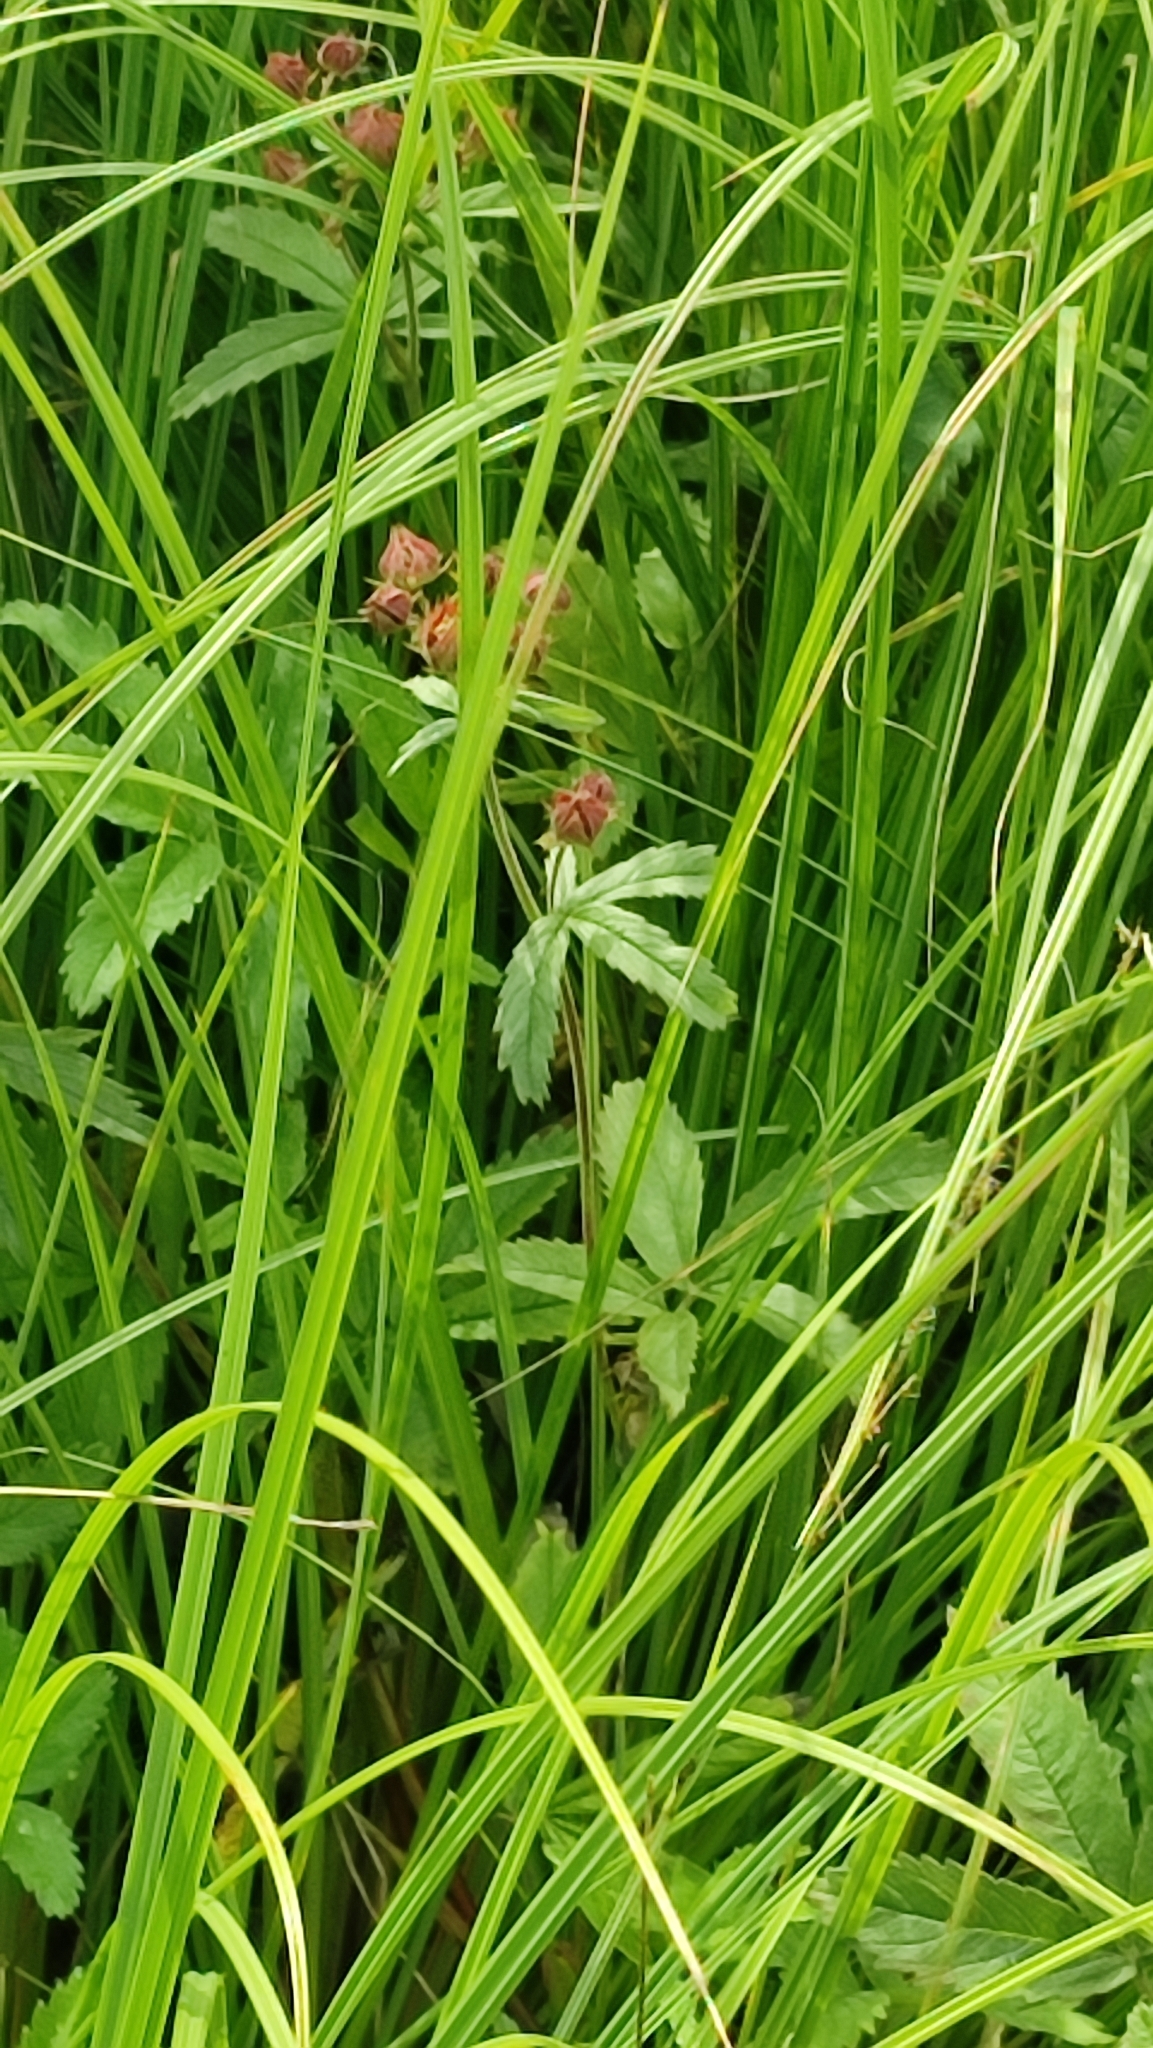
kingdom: Plantae
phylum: Tracheophyta
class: Magnoliopsida
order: Rosales
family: Rosaceae
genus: Comarum
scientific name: Comarum palustre
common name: Marsh cinquefoil
